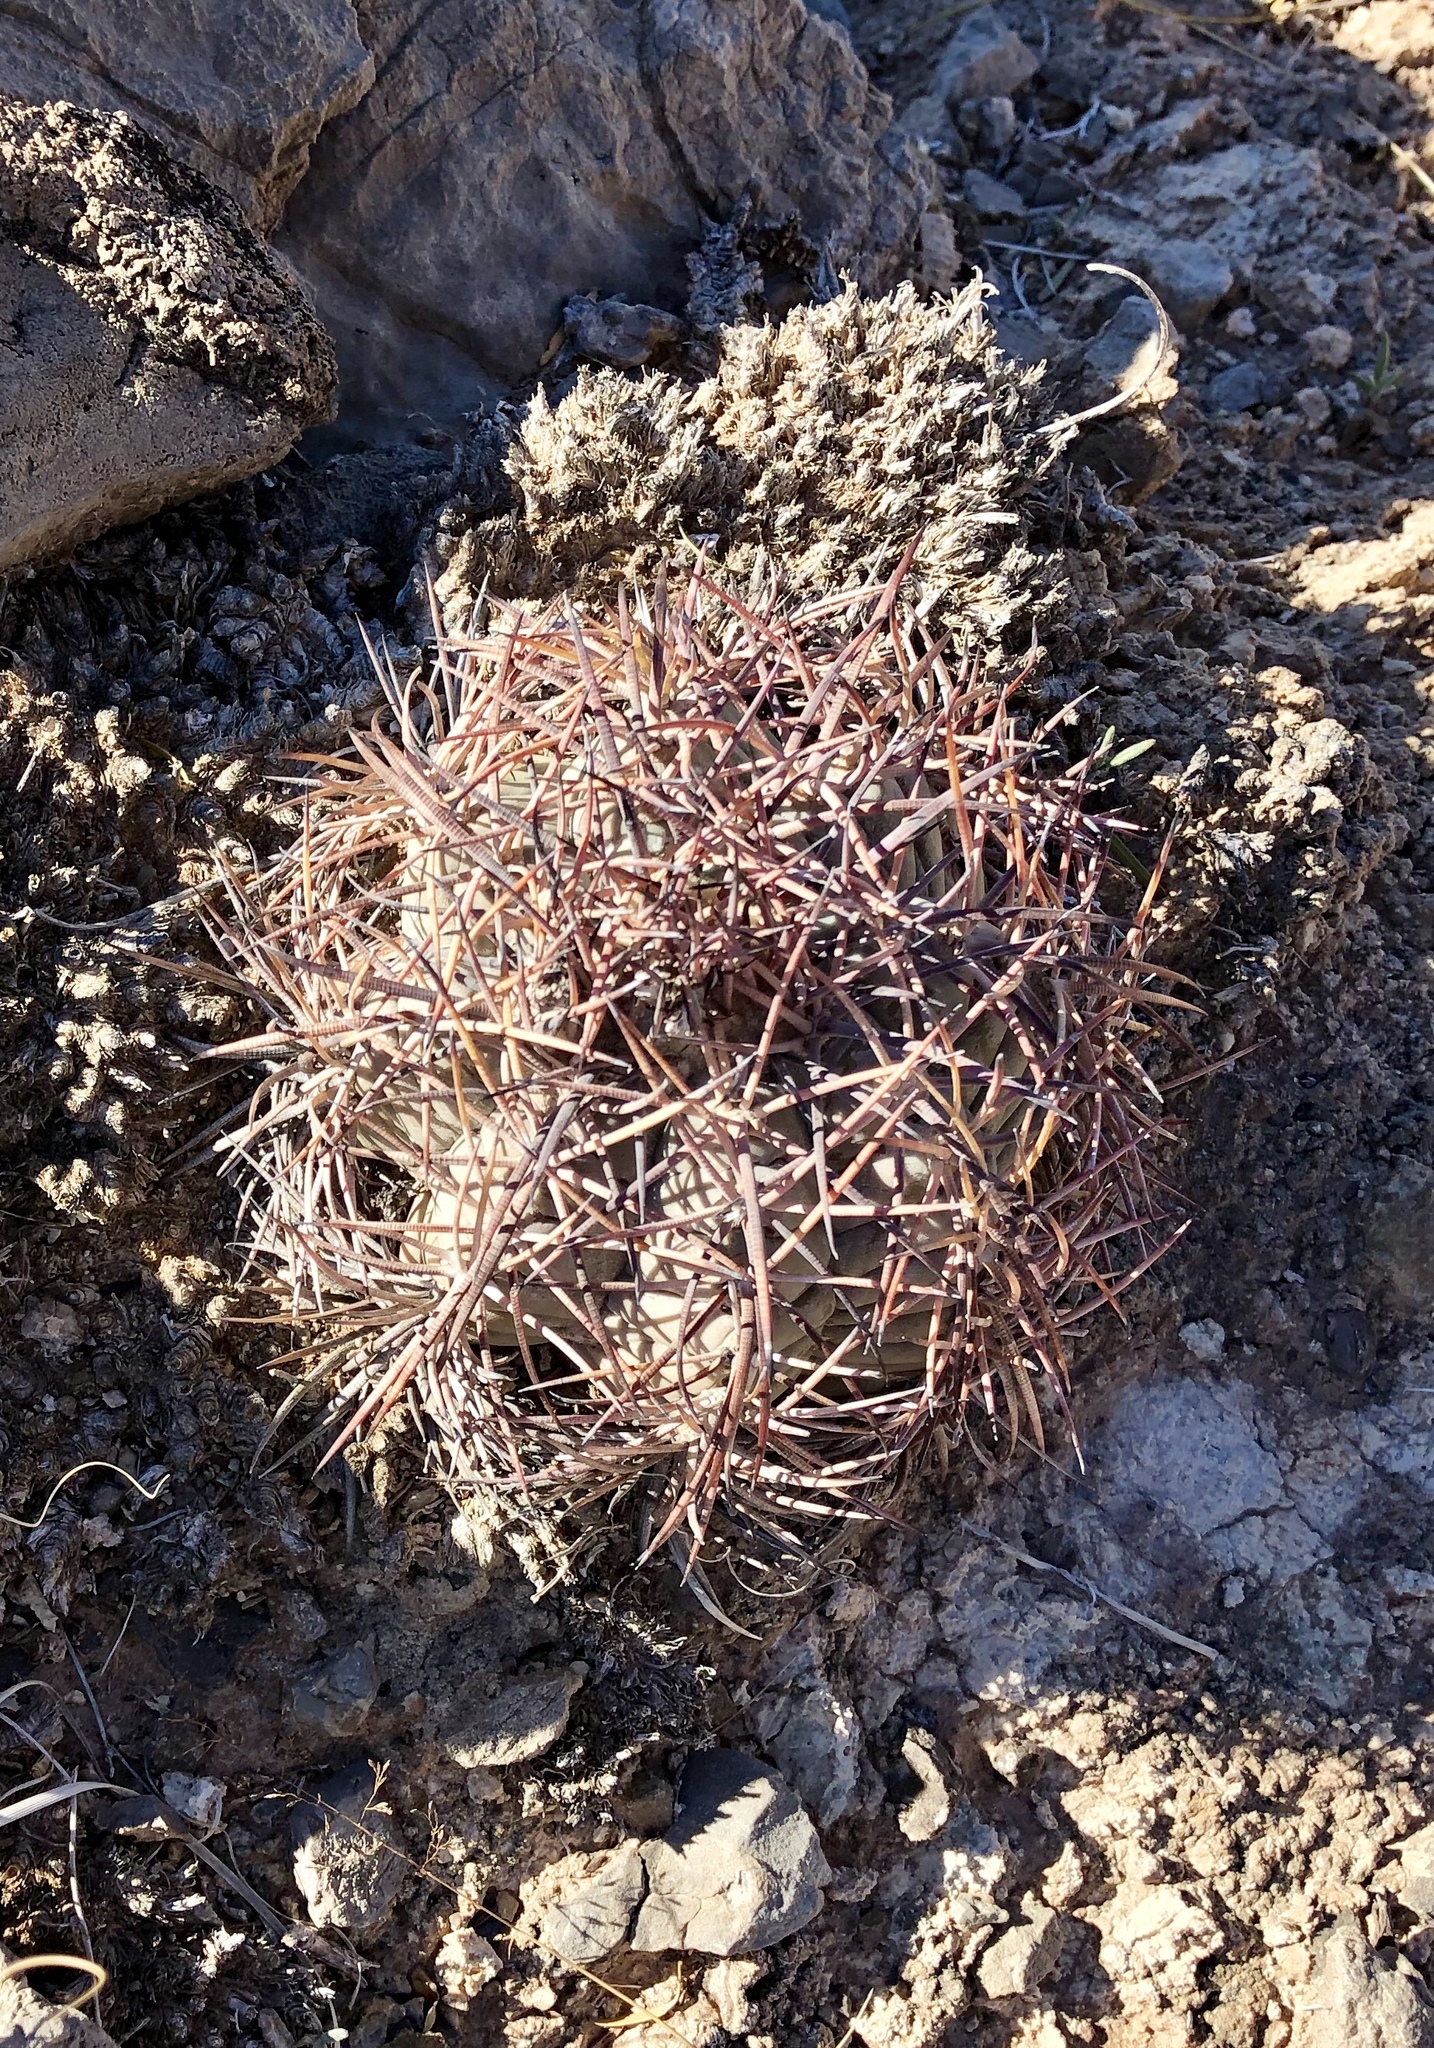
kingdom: Plantae
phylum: Tracheophyta
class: Magnoliopsida
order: Caryophyllales
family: Cactaceae
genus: Echinocactus
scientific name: Echinocactus horizonthalonius
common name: Devilshead
